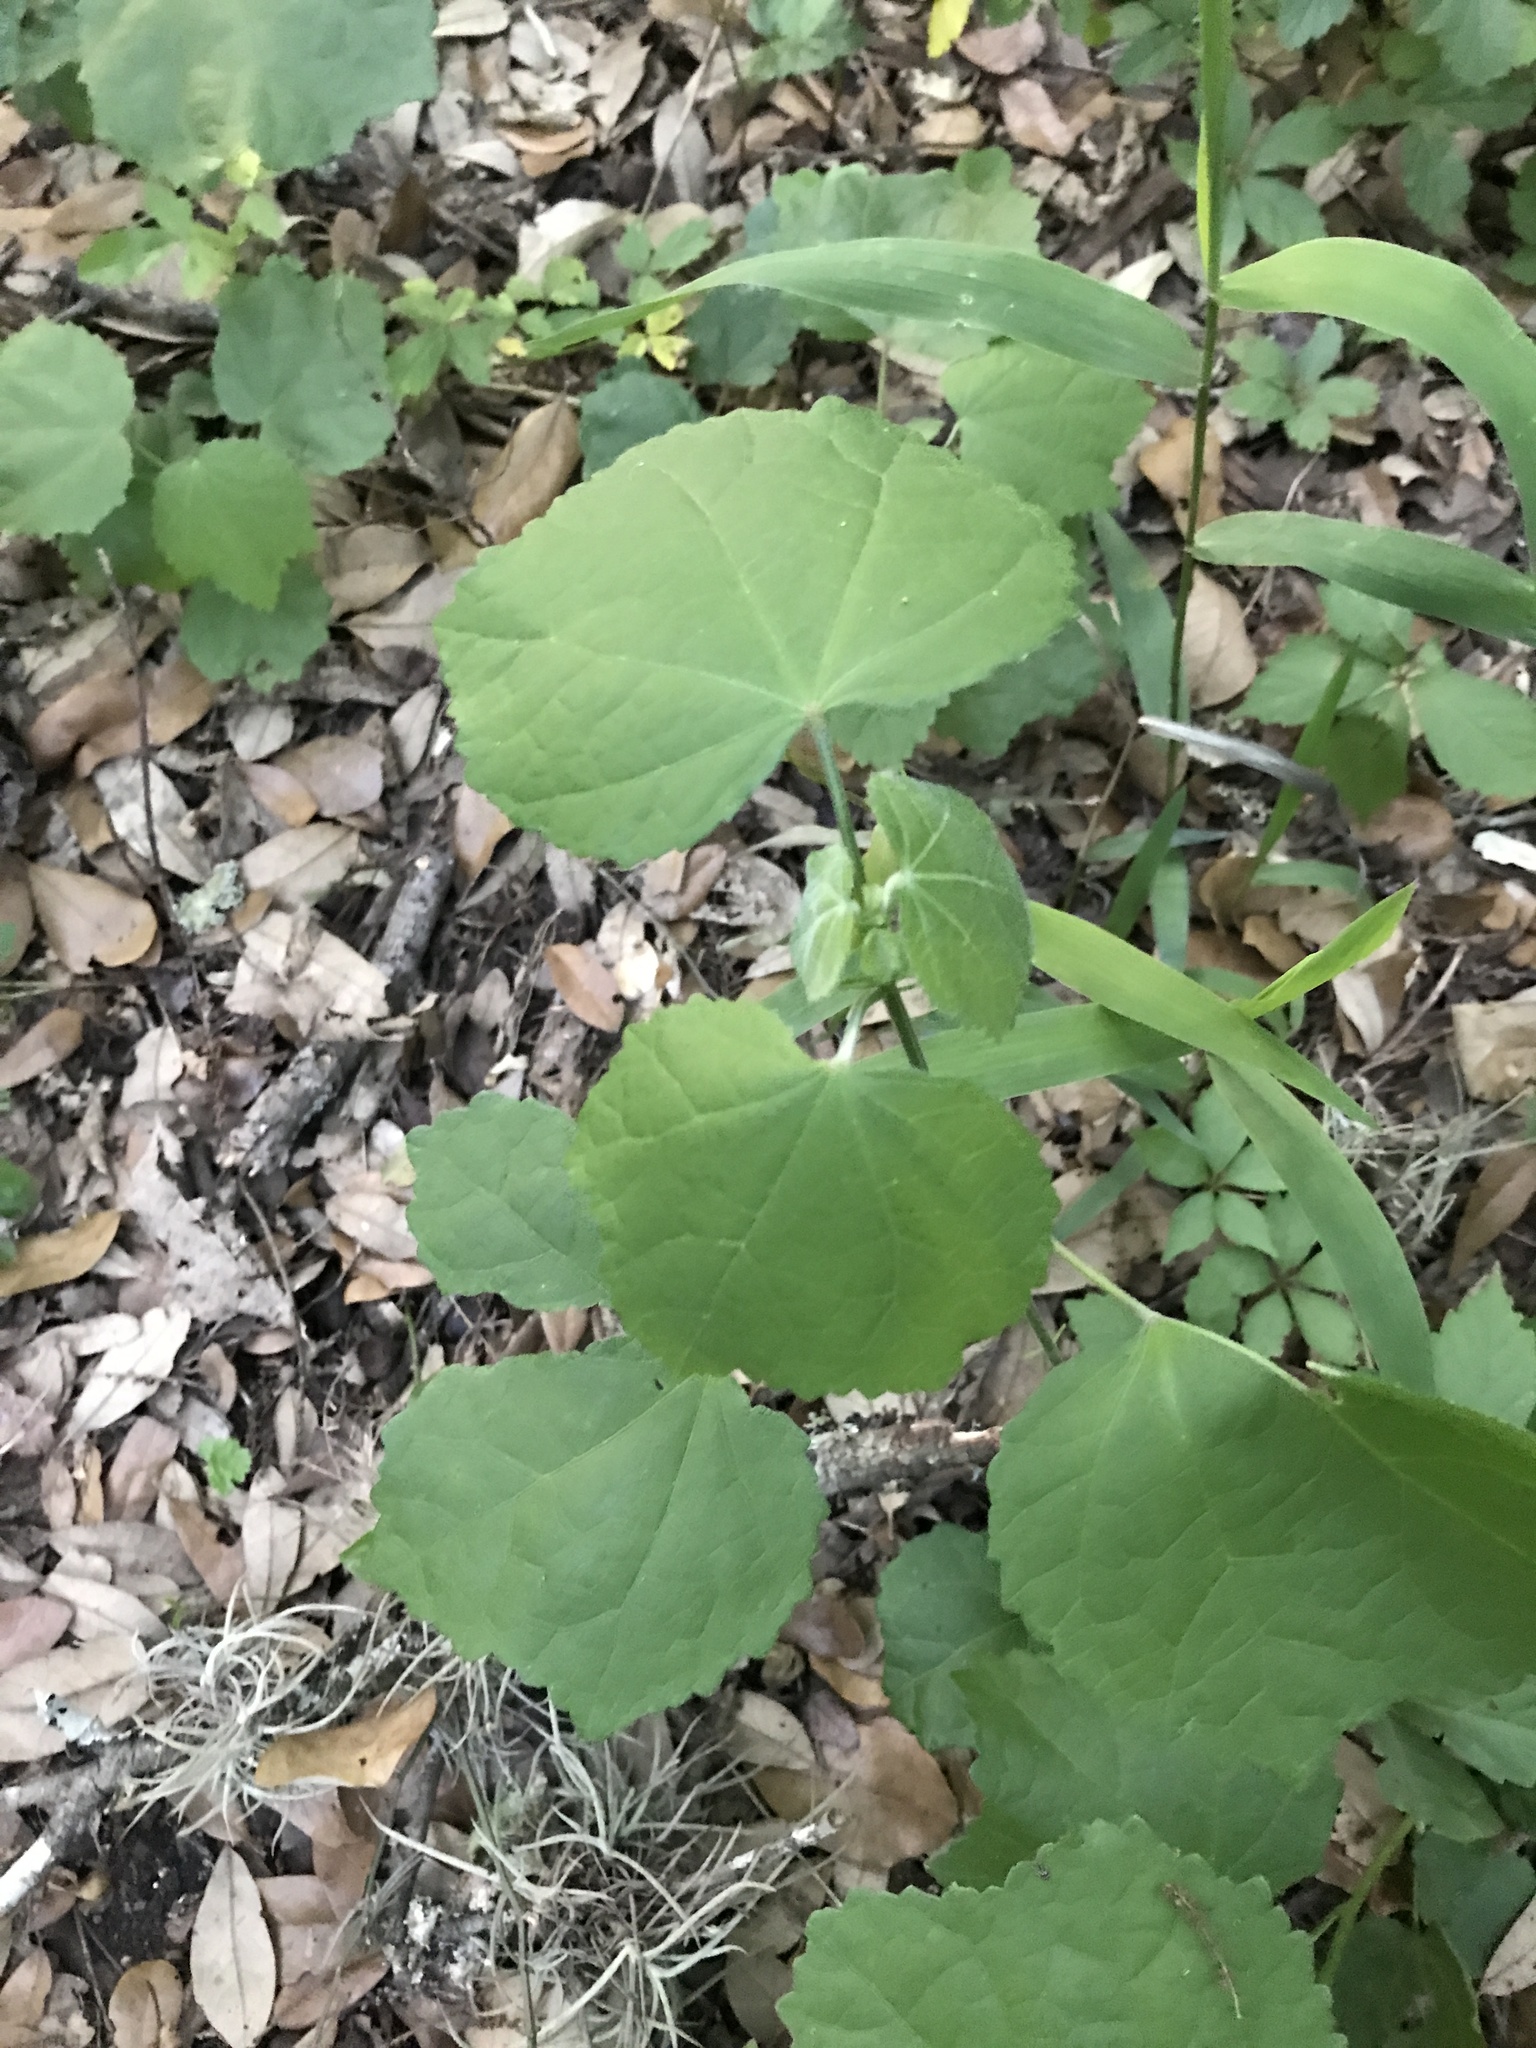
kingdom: Plantae
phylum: Tracheophyta
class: Magnoliopsida
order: Malvales
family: Malvaceae
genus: Malvaviscus
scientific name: Malvaviscus arboreus
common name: Wax mallow
